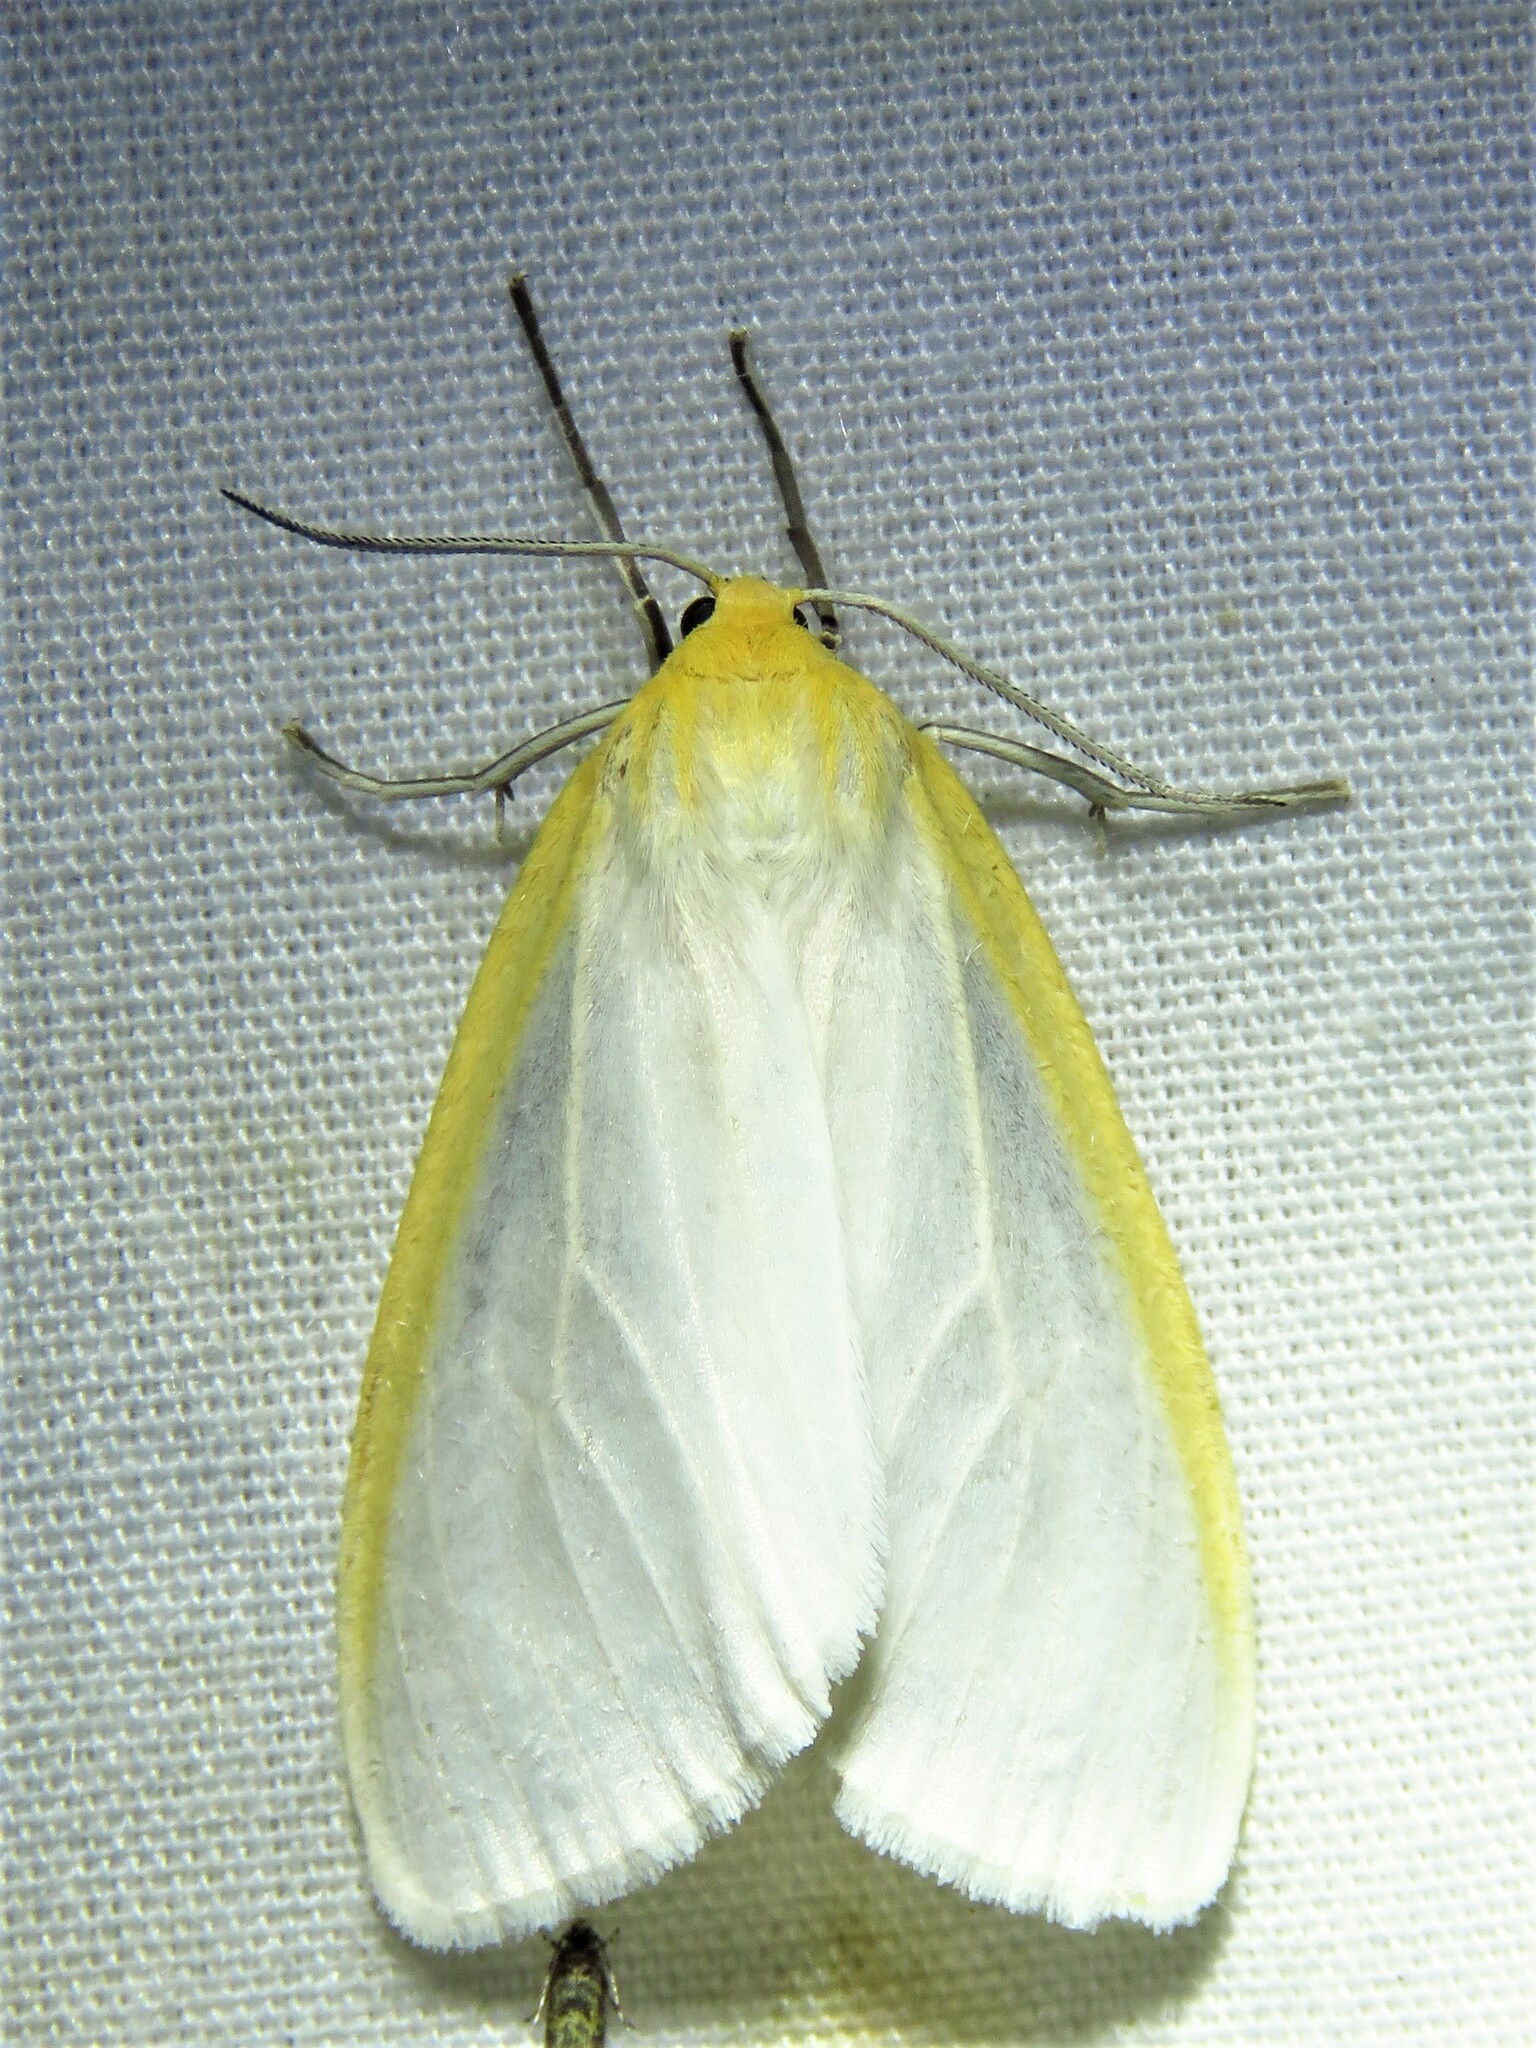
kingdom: Animalia
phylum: Arthropoda
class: Insecta
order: Lepidoptera
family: Erebidae
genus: Cycnia
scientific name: Cycnia tenera
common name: Delicate cycnia moth
